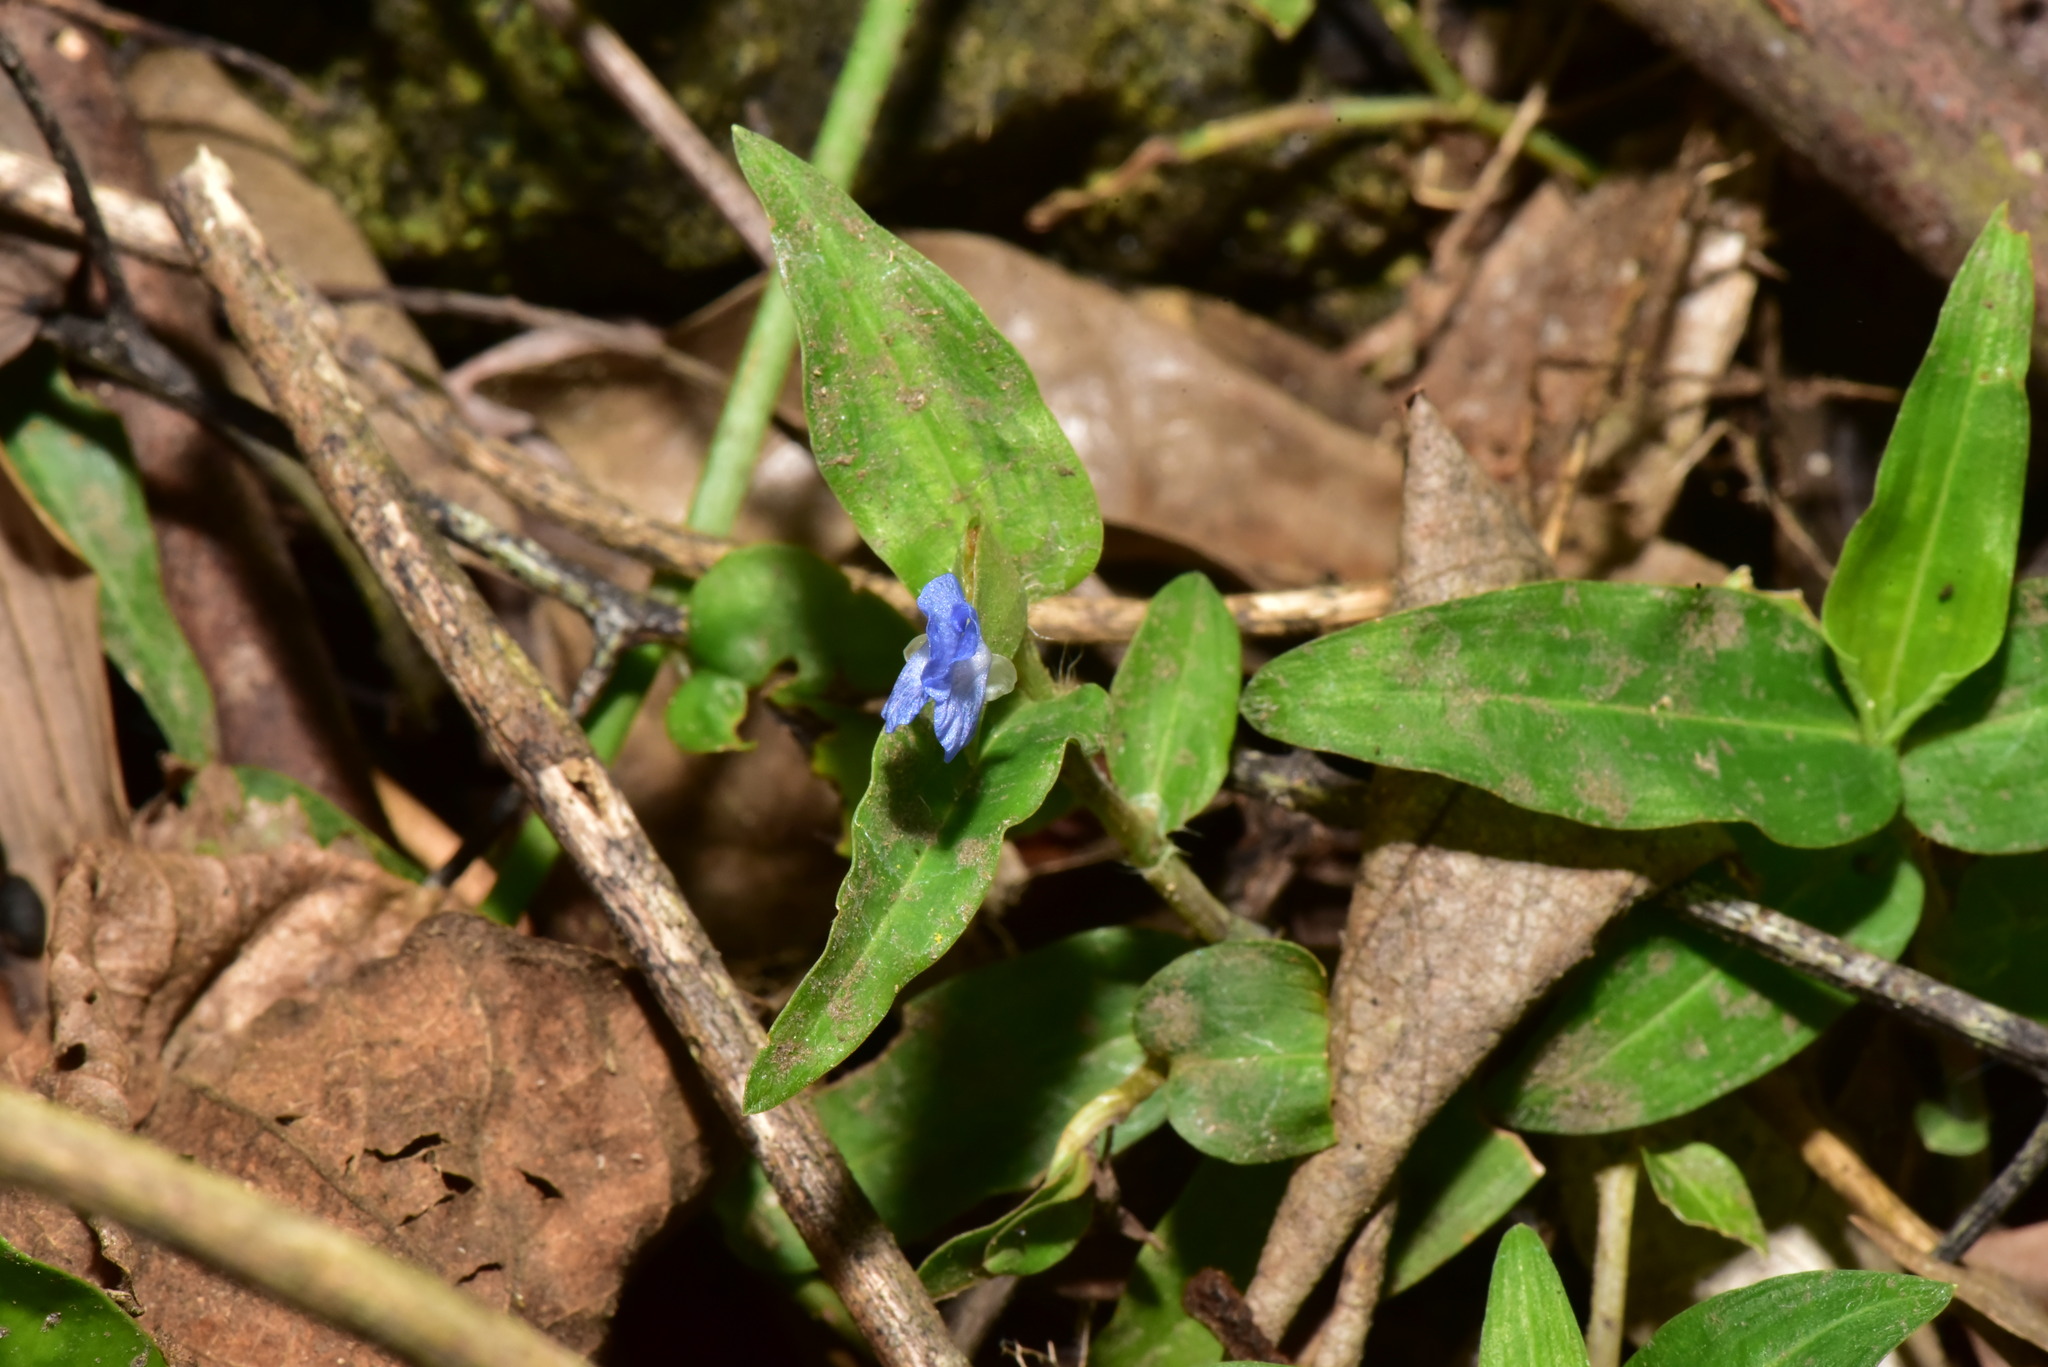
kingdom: Plantae
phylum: Tracheophyta
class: Liliopsida
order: Commelinales
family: Commelinaceae
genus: Commelina
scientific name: Commelina auriculata
